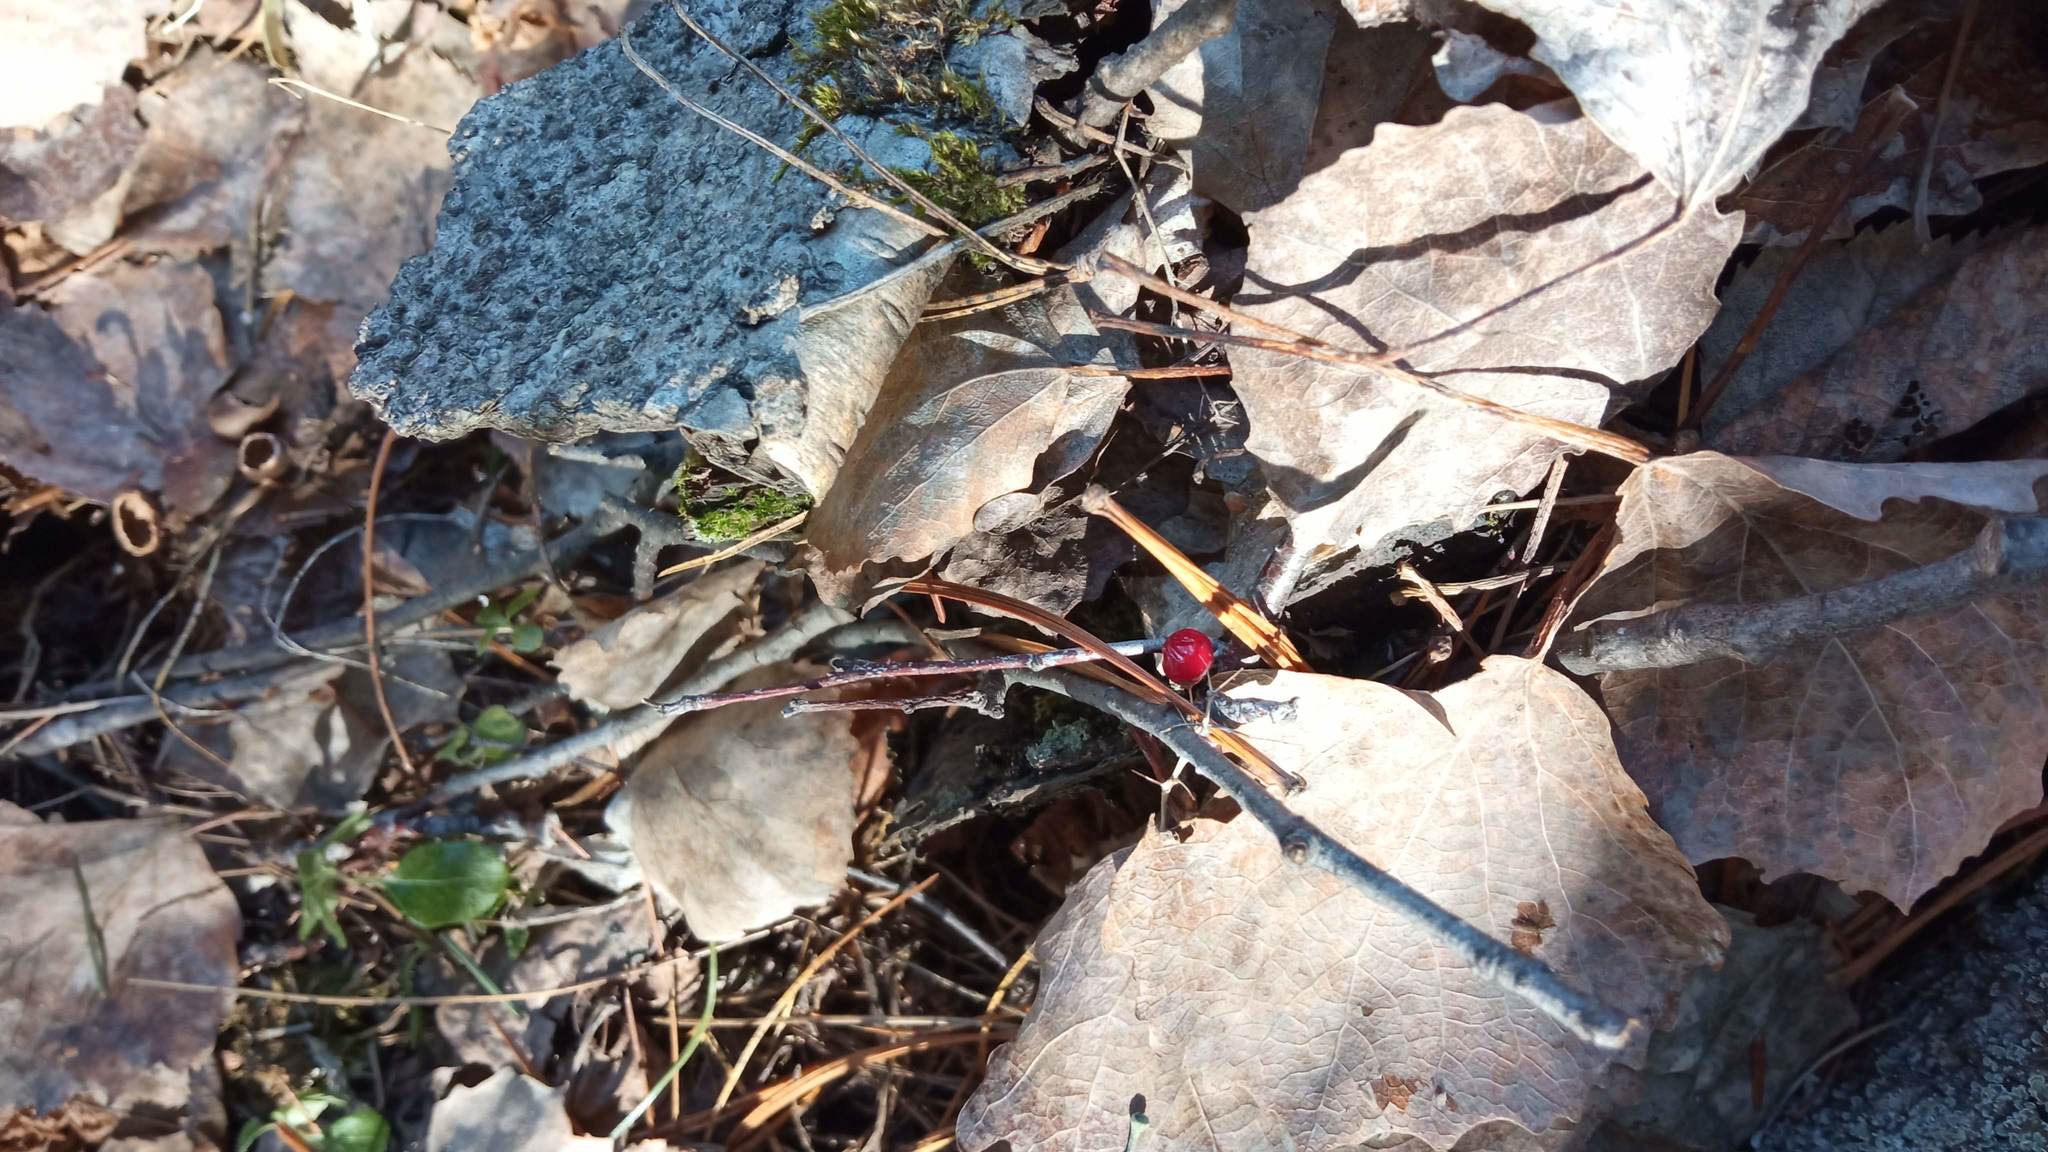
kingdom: Plantae
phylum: Tracheophyta
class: Liliopsida
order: Asparagales
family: Asparagaceae
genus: Maianthemum
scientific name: Maianthemum bifolium
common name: May lily
